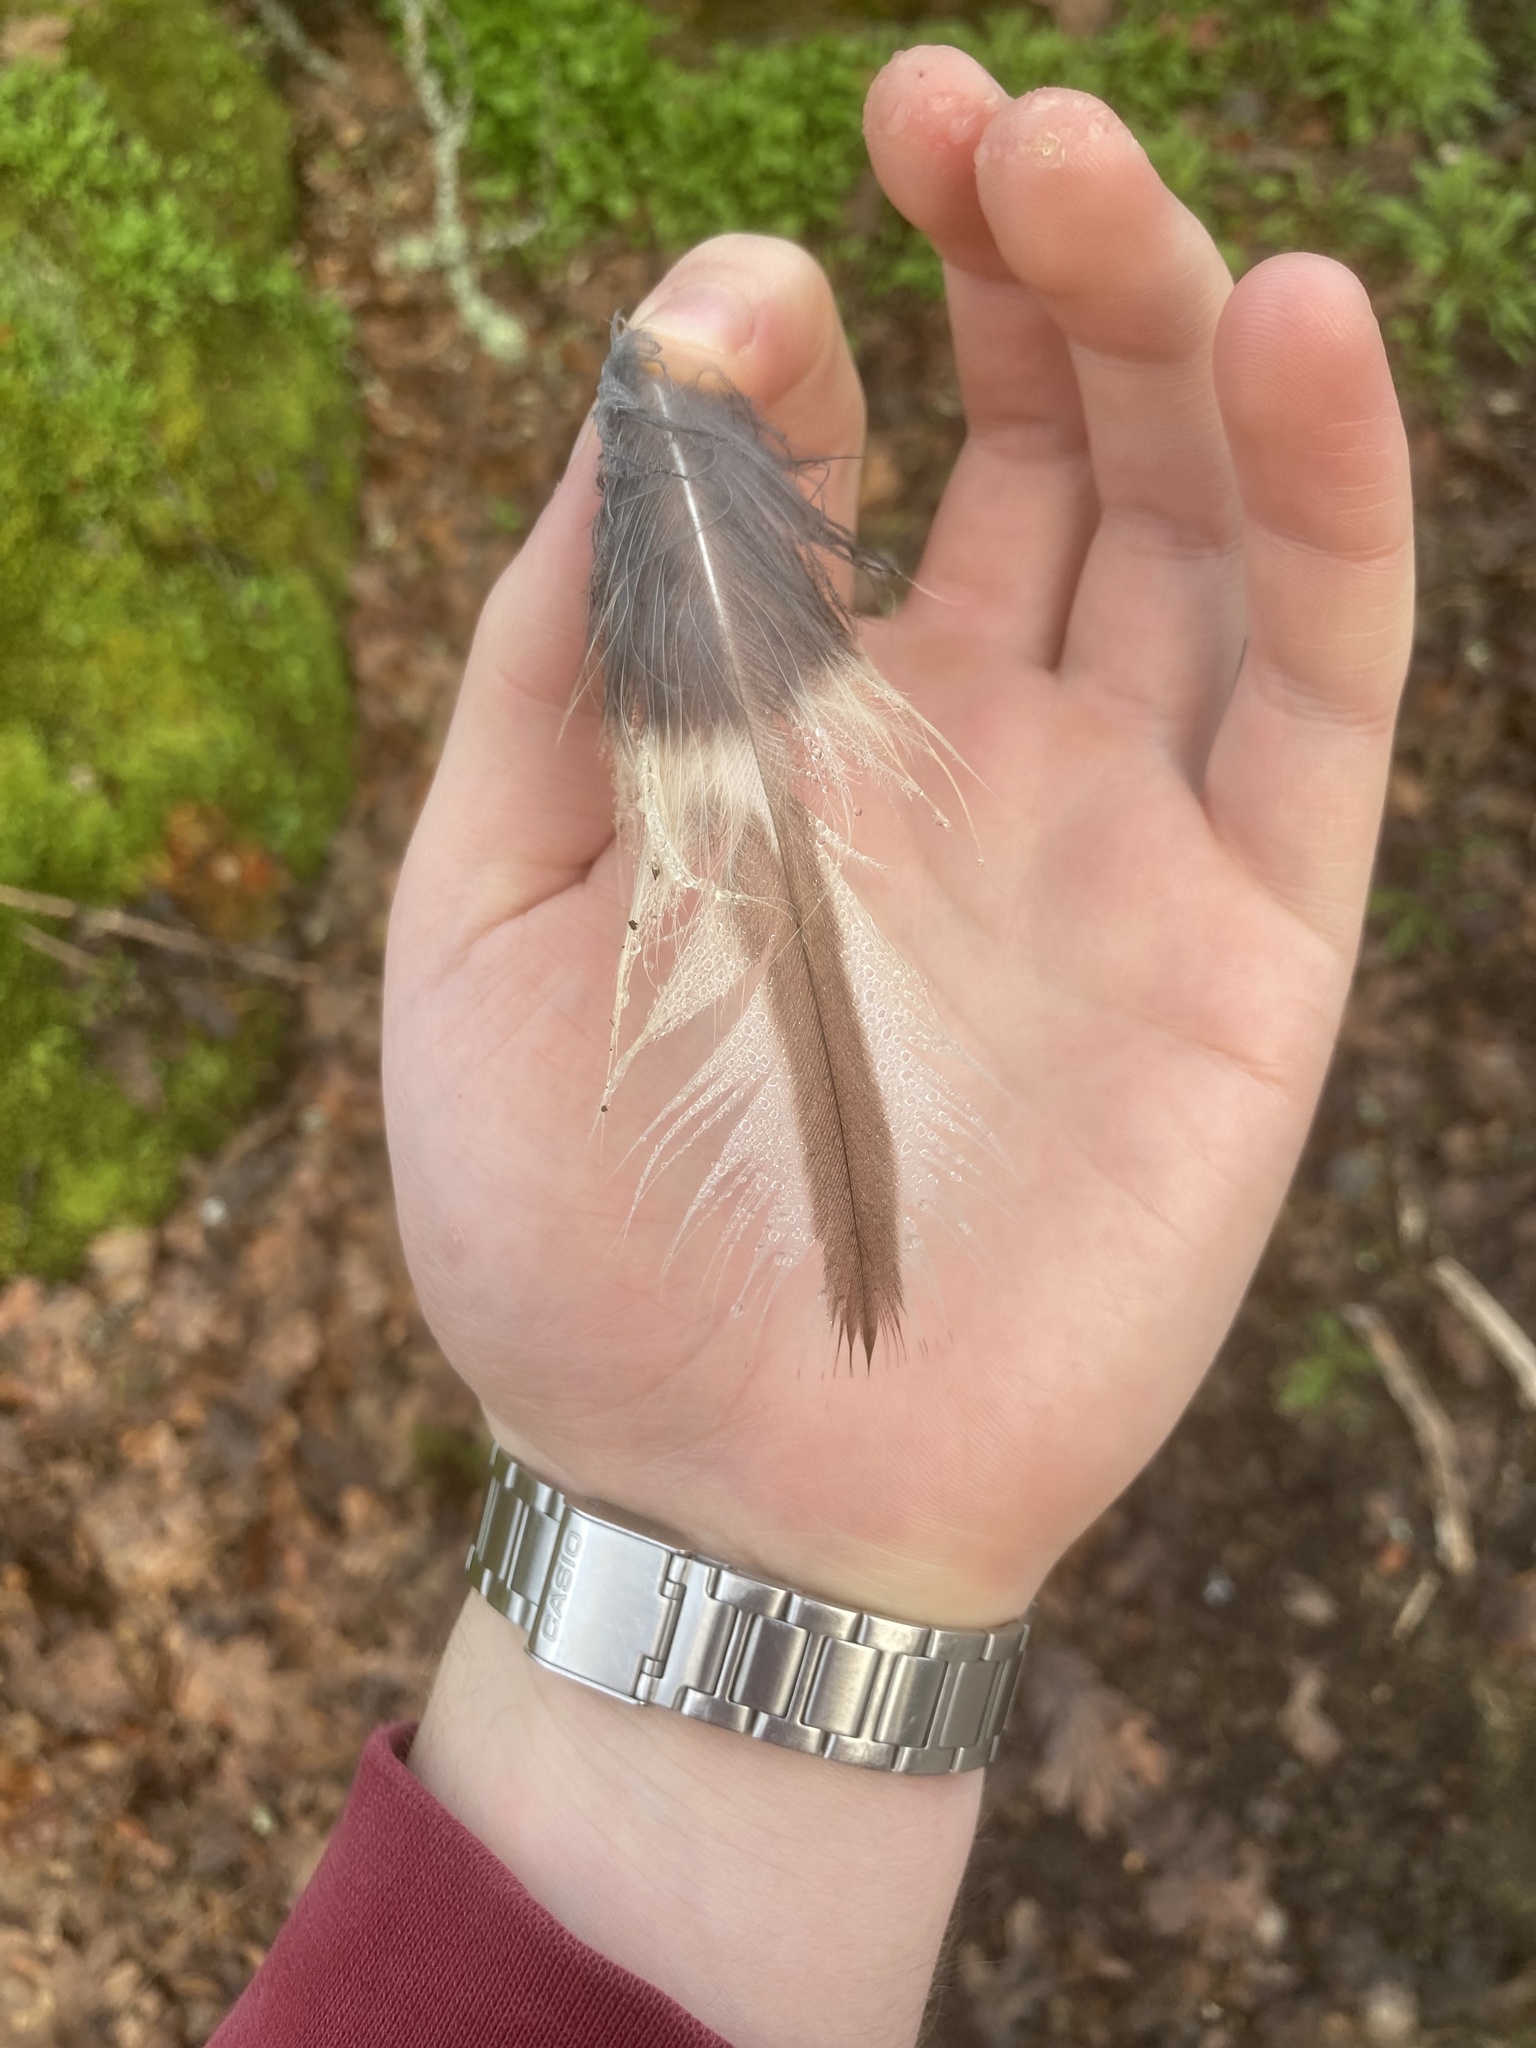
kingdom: Animalia
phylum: Chordata
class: Aves
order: Strigiformes
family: Strigidae
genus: Strix
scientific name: Strix varia
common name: Barred owl
